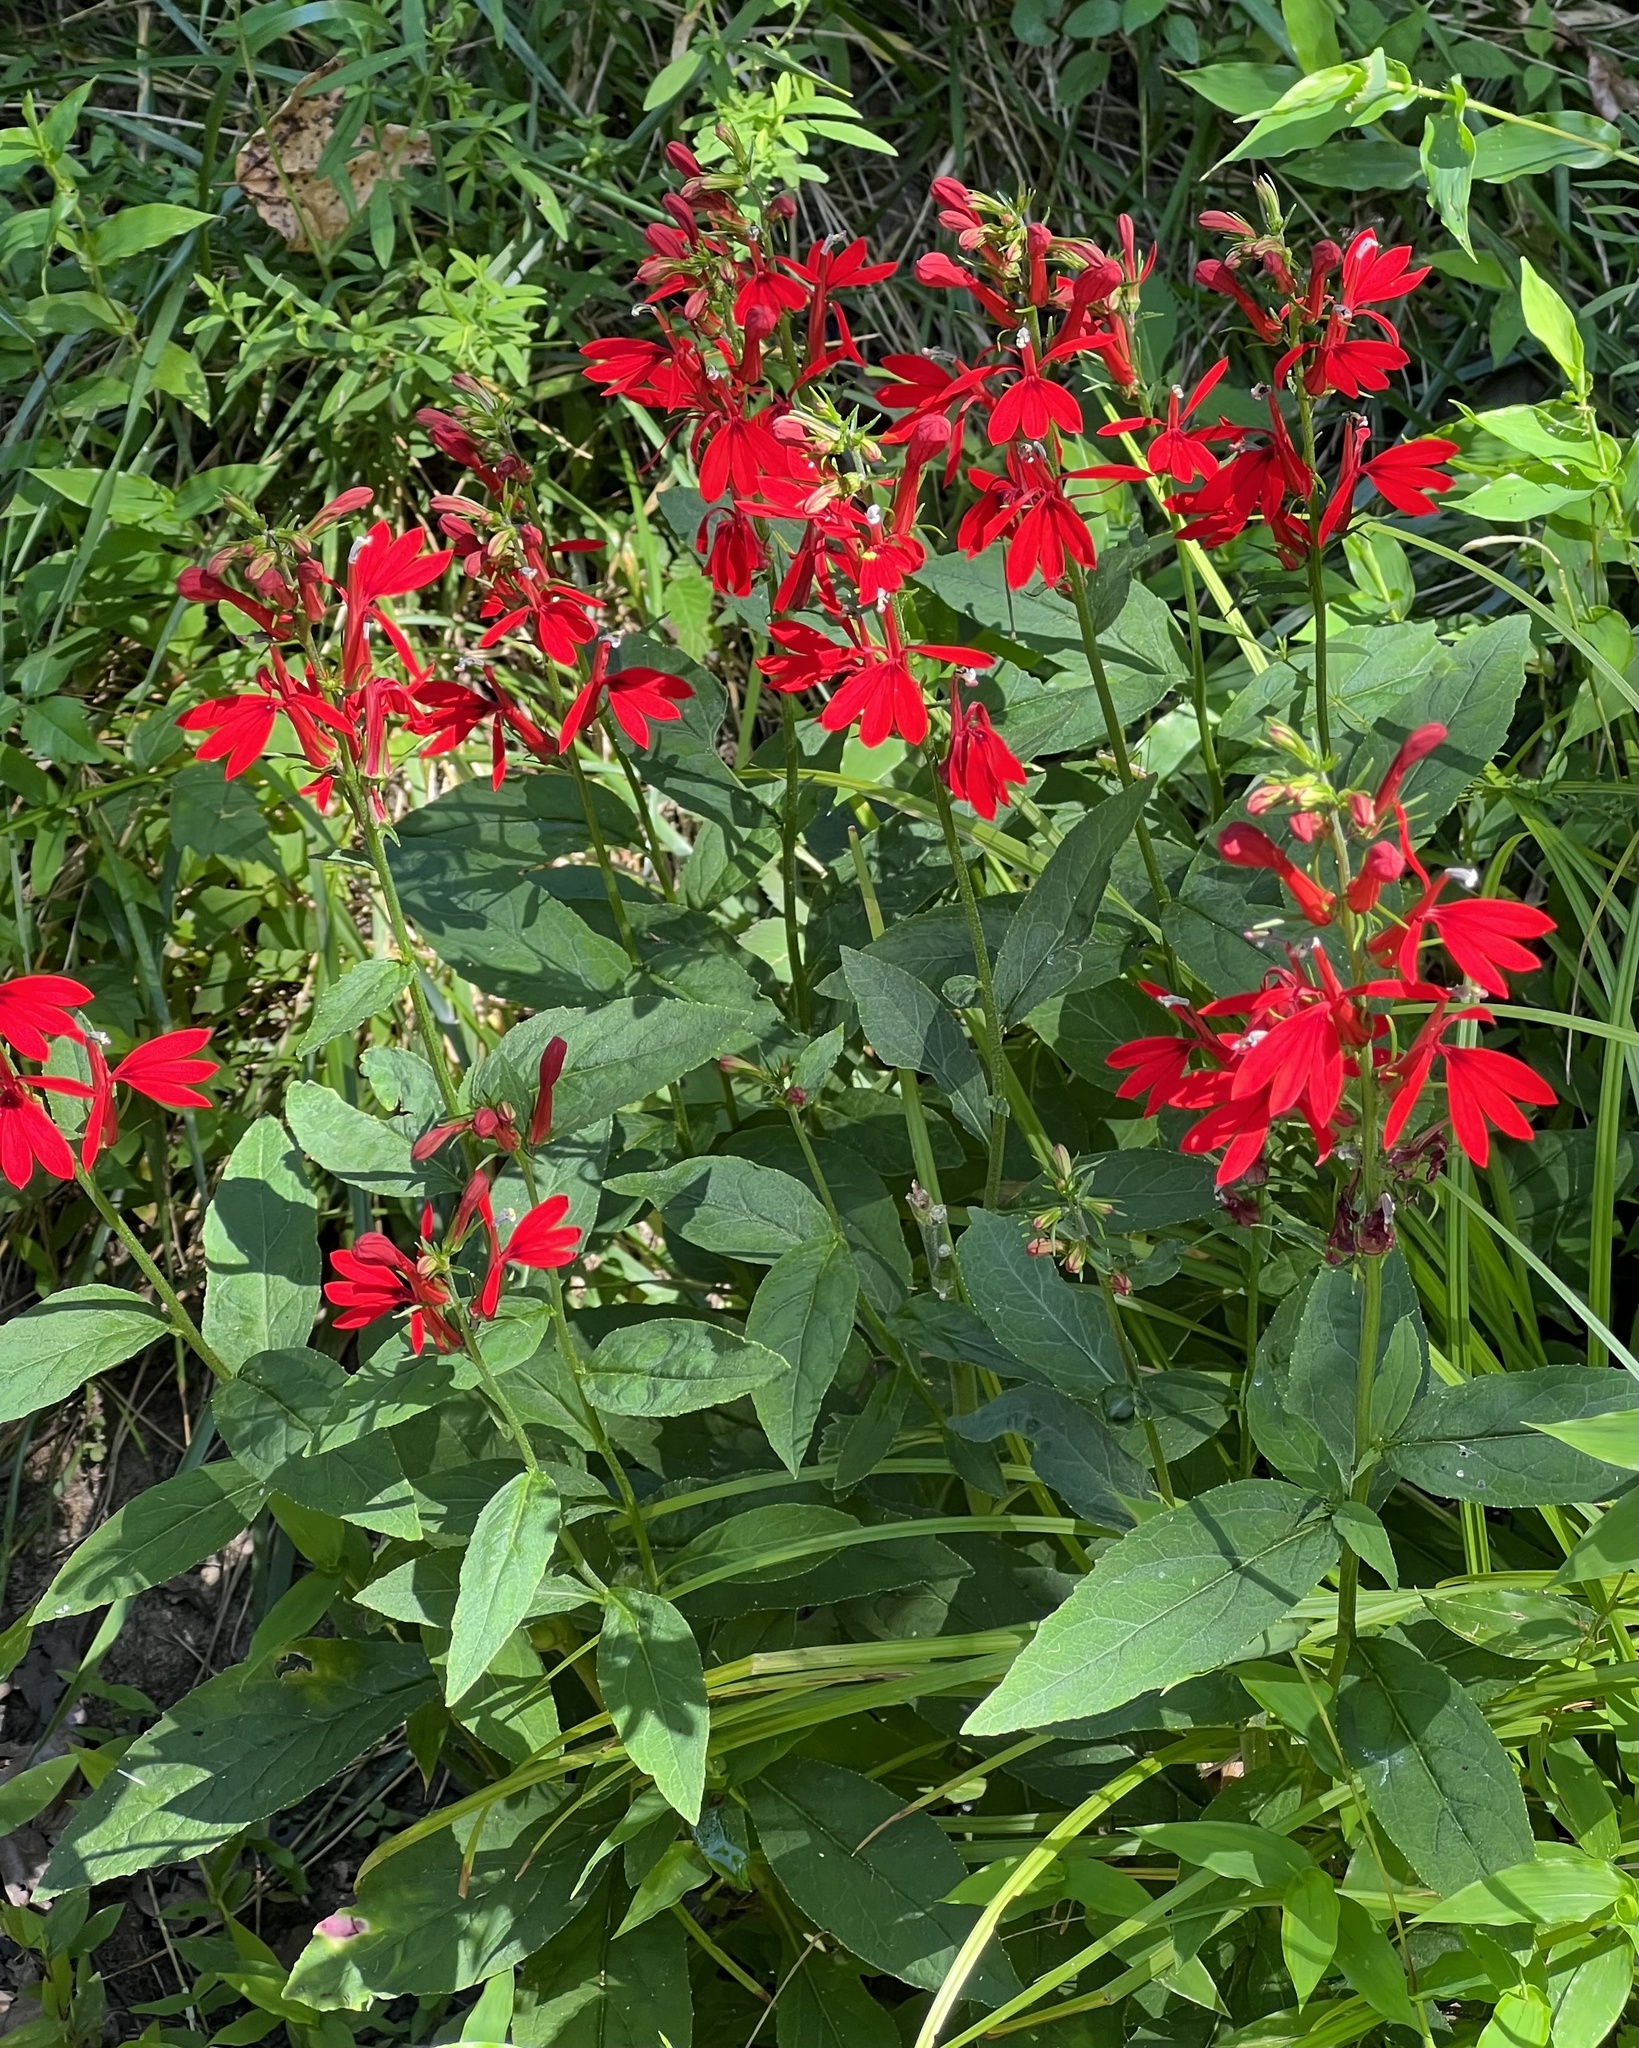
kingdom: Plantae
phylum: Tracheophyta
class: Magnoliopsida
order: Asterales
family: Campanulaceae
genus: Lobelia
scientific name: Lobelia cardinalis
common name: Cardinal flower
